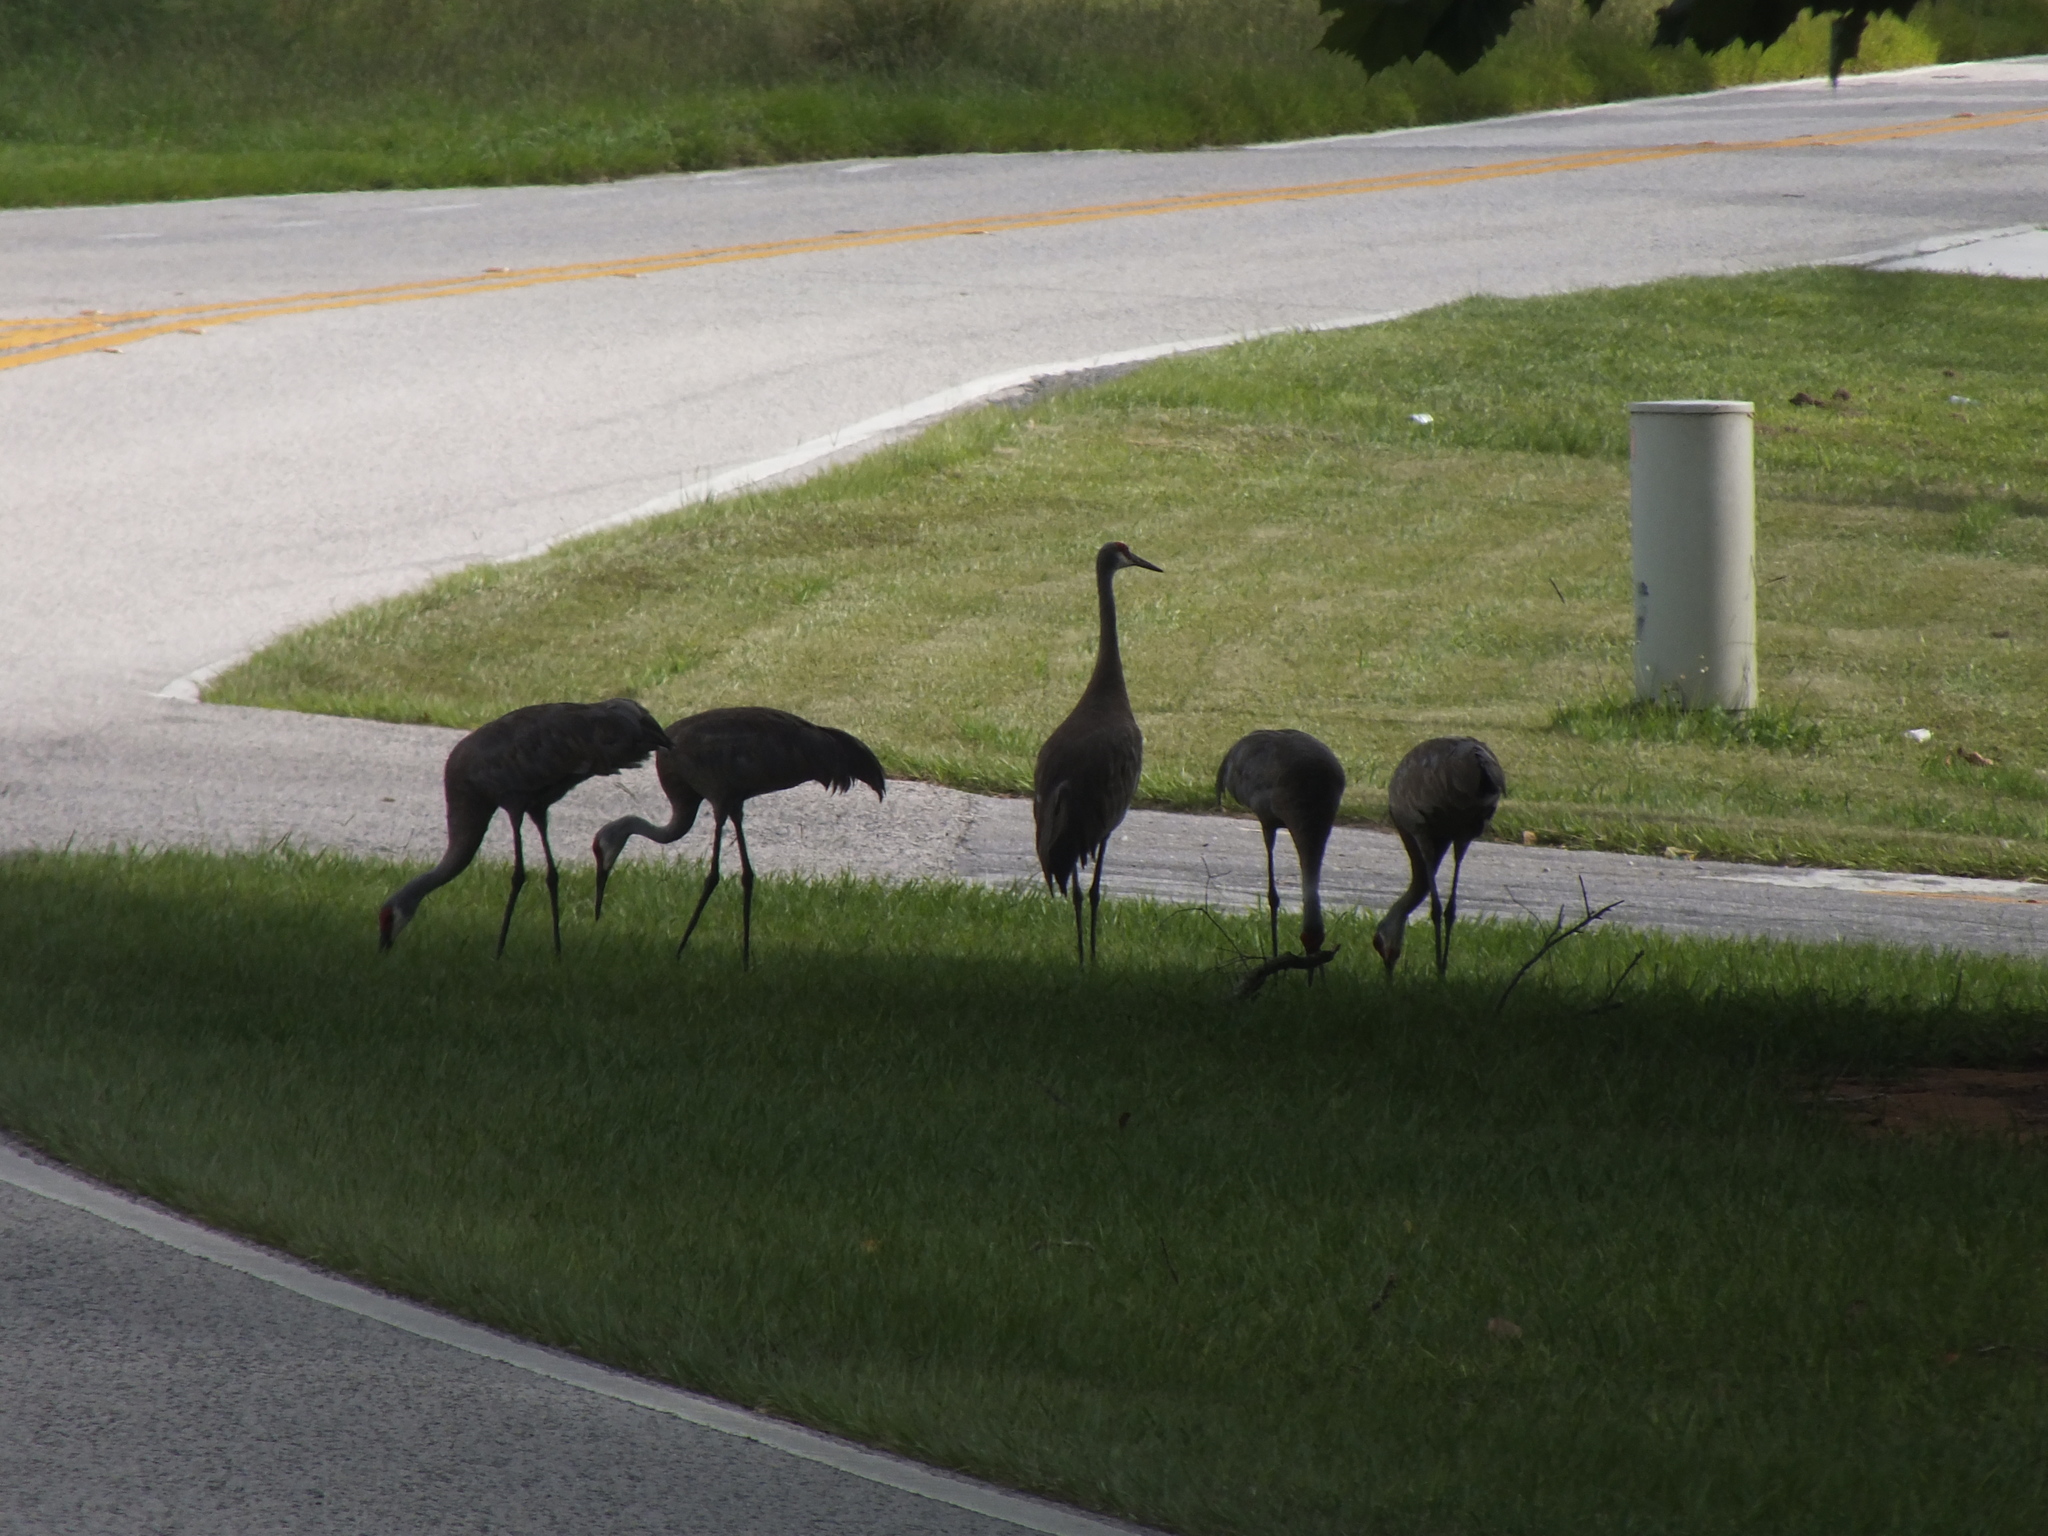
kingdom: Animalia
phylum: Chordata
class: Aves
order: Gruiformes
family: Gruidae
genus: Grus
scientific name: Grus canadensis
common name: Sandhill crane
